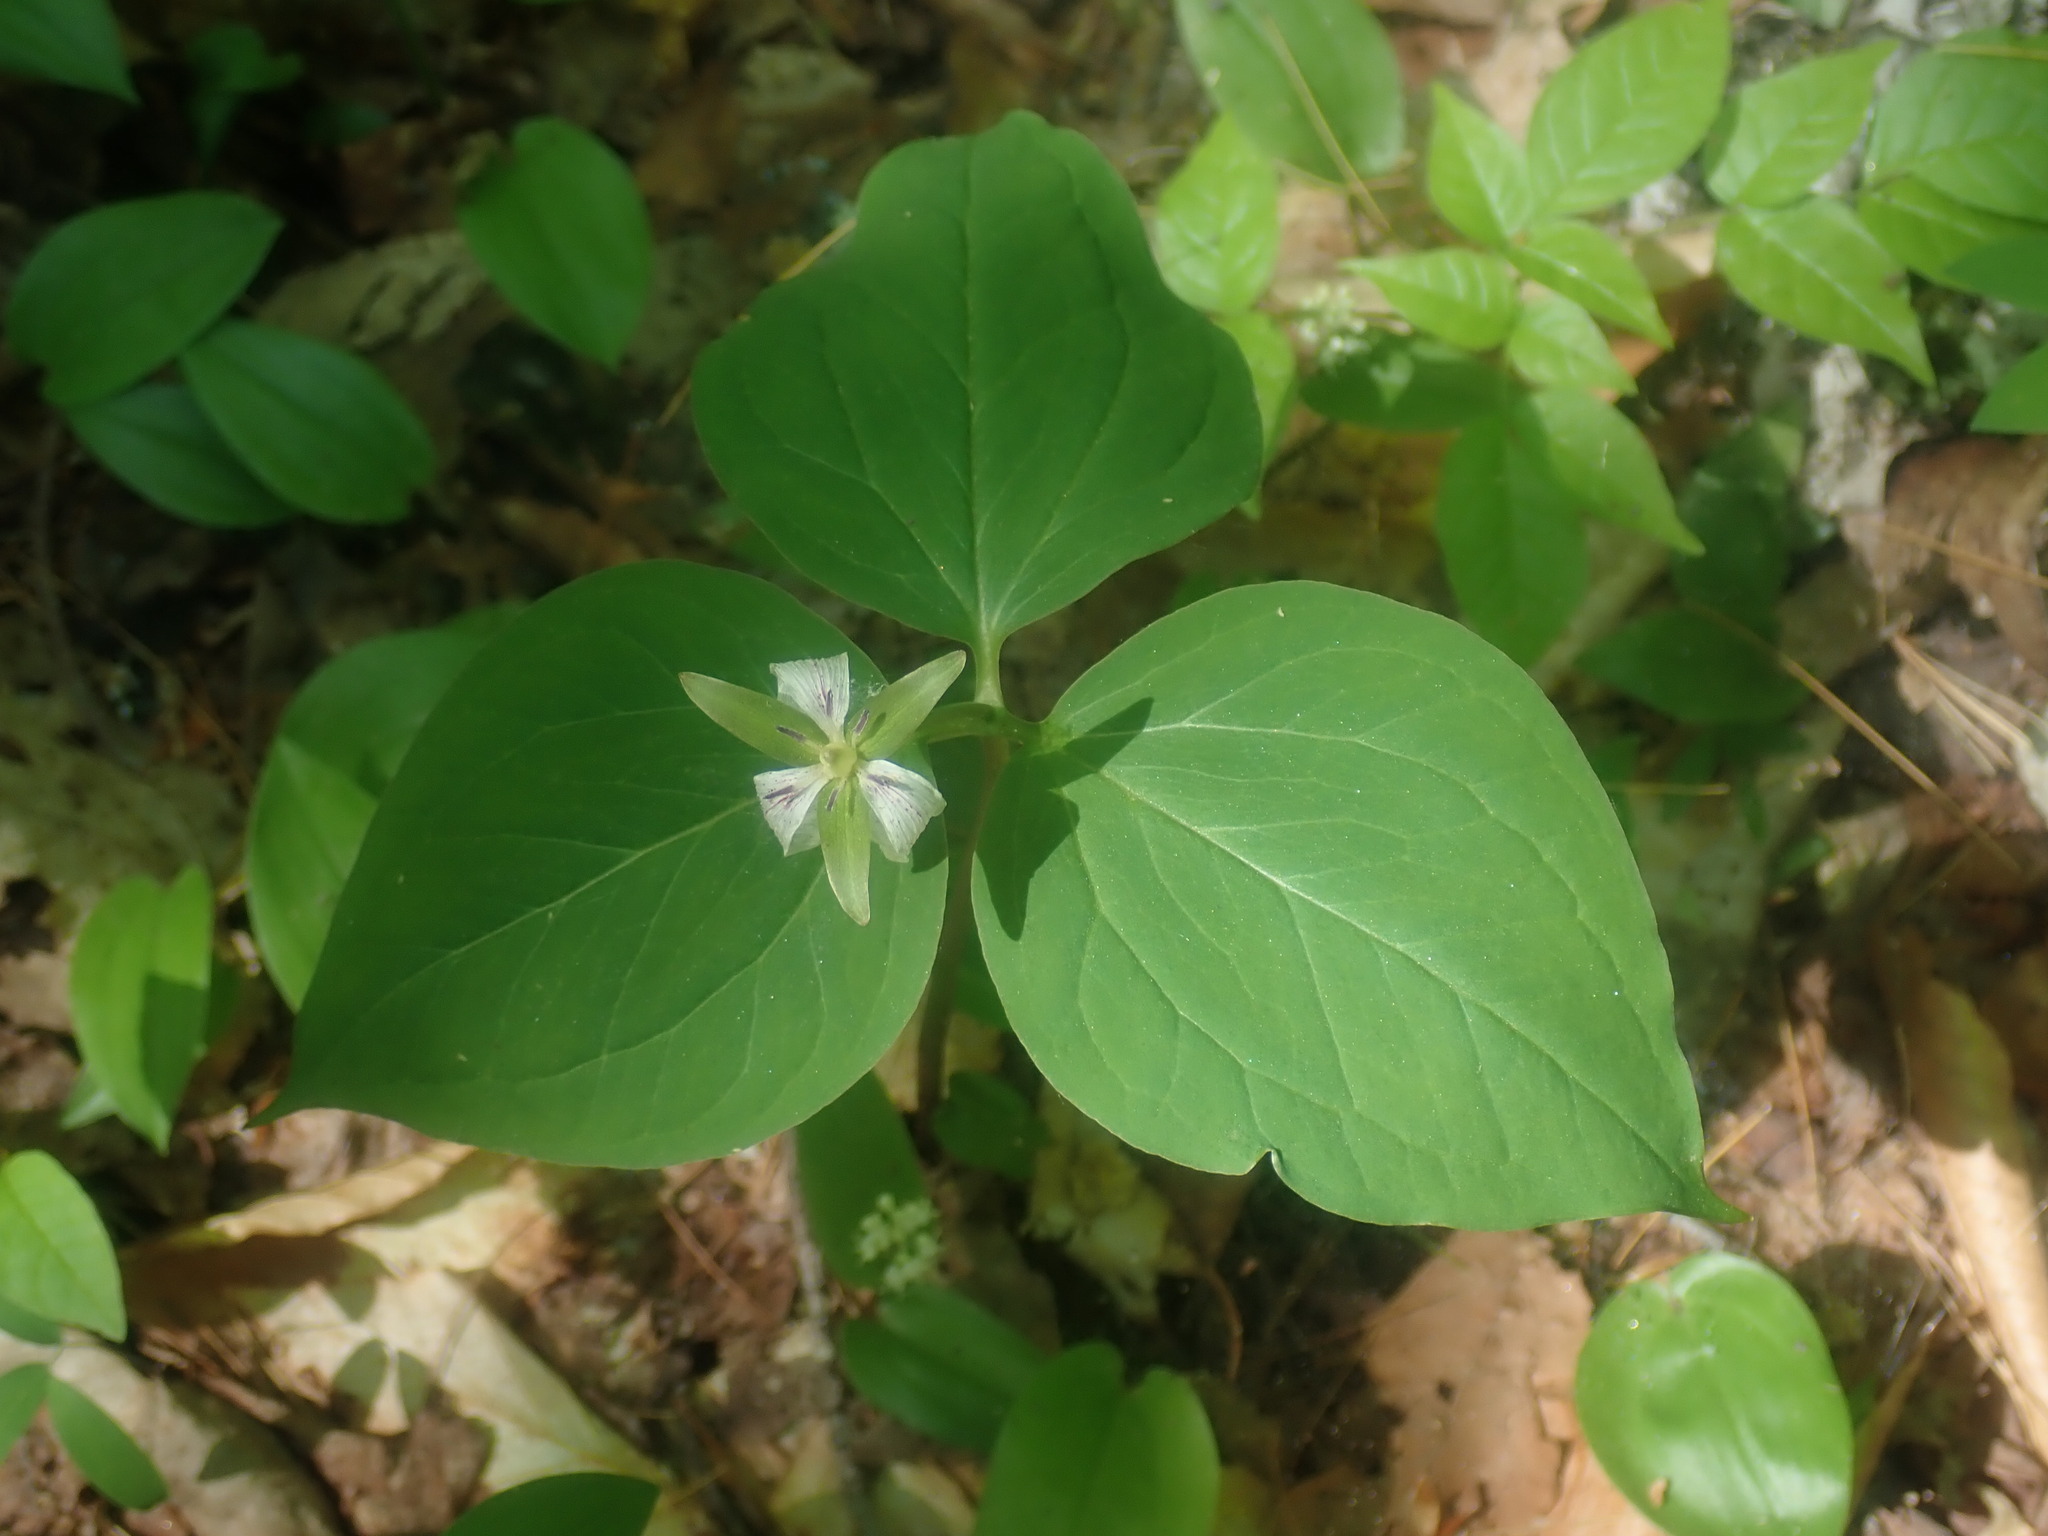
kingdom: Plantae
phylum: Tracheophyta
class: Liliopsida
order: Liliales
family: Melanthiaceae
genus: Trillium
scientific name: Trillium undulatum
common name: Paint trillium
